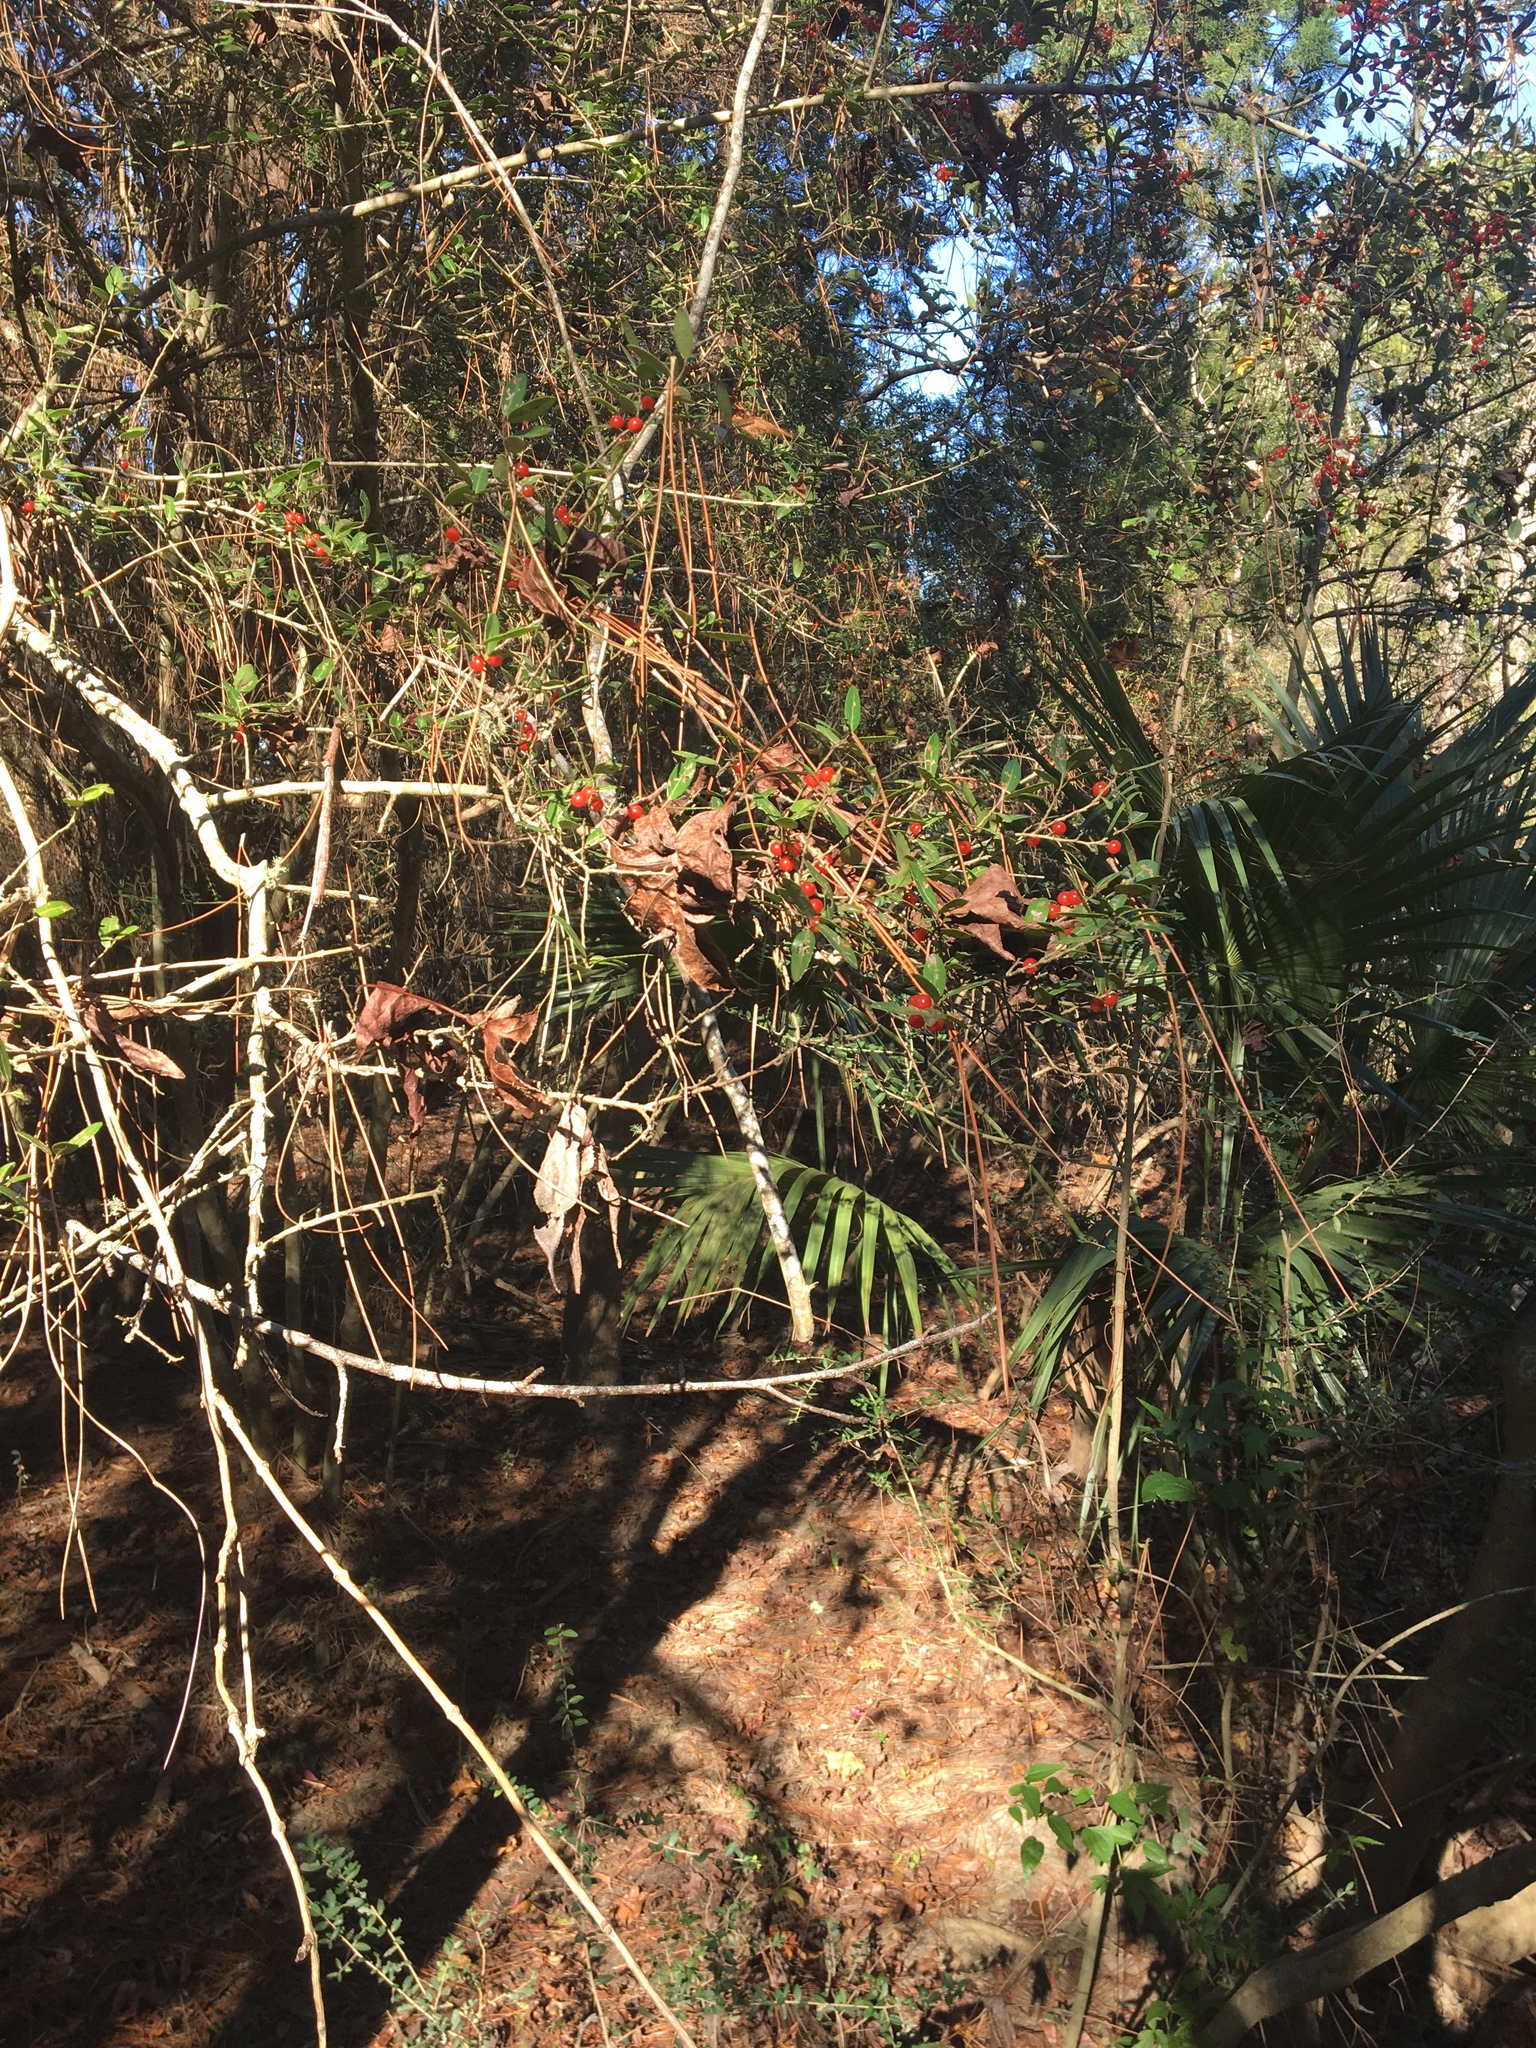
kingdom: Plantae
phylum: Tracheophyta
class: Magnoliopsida
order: Aquifoliales
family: Aquifoliaceae
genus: Ilex
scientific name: Ilex vomitoria
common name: Yaupon holly
